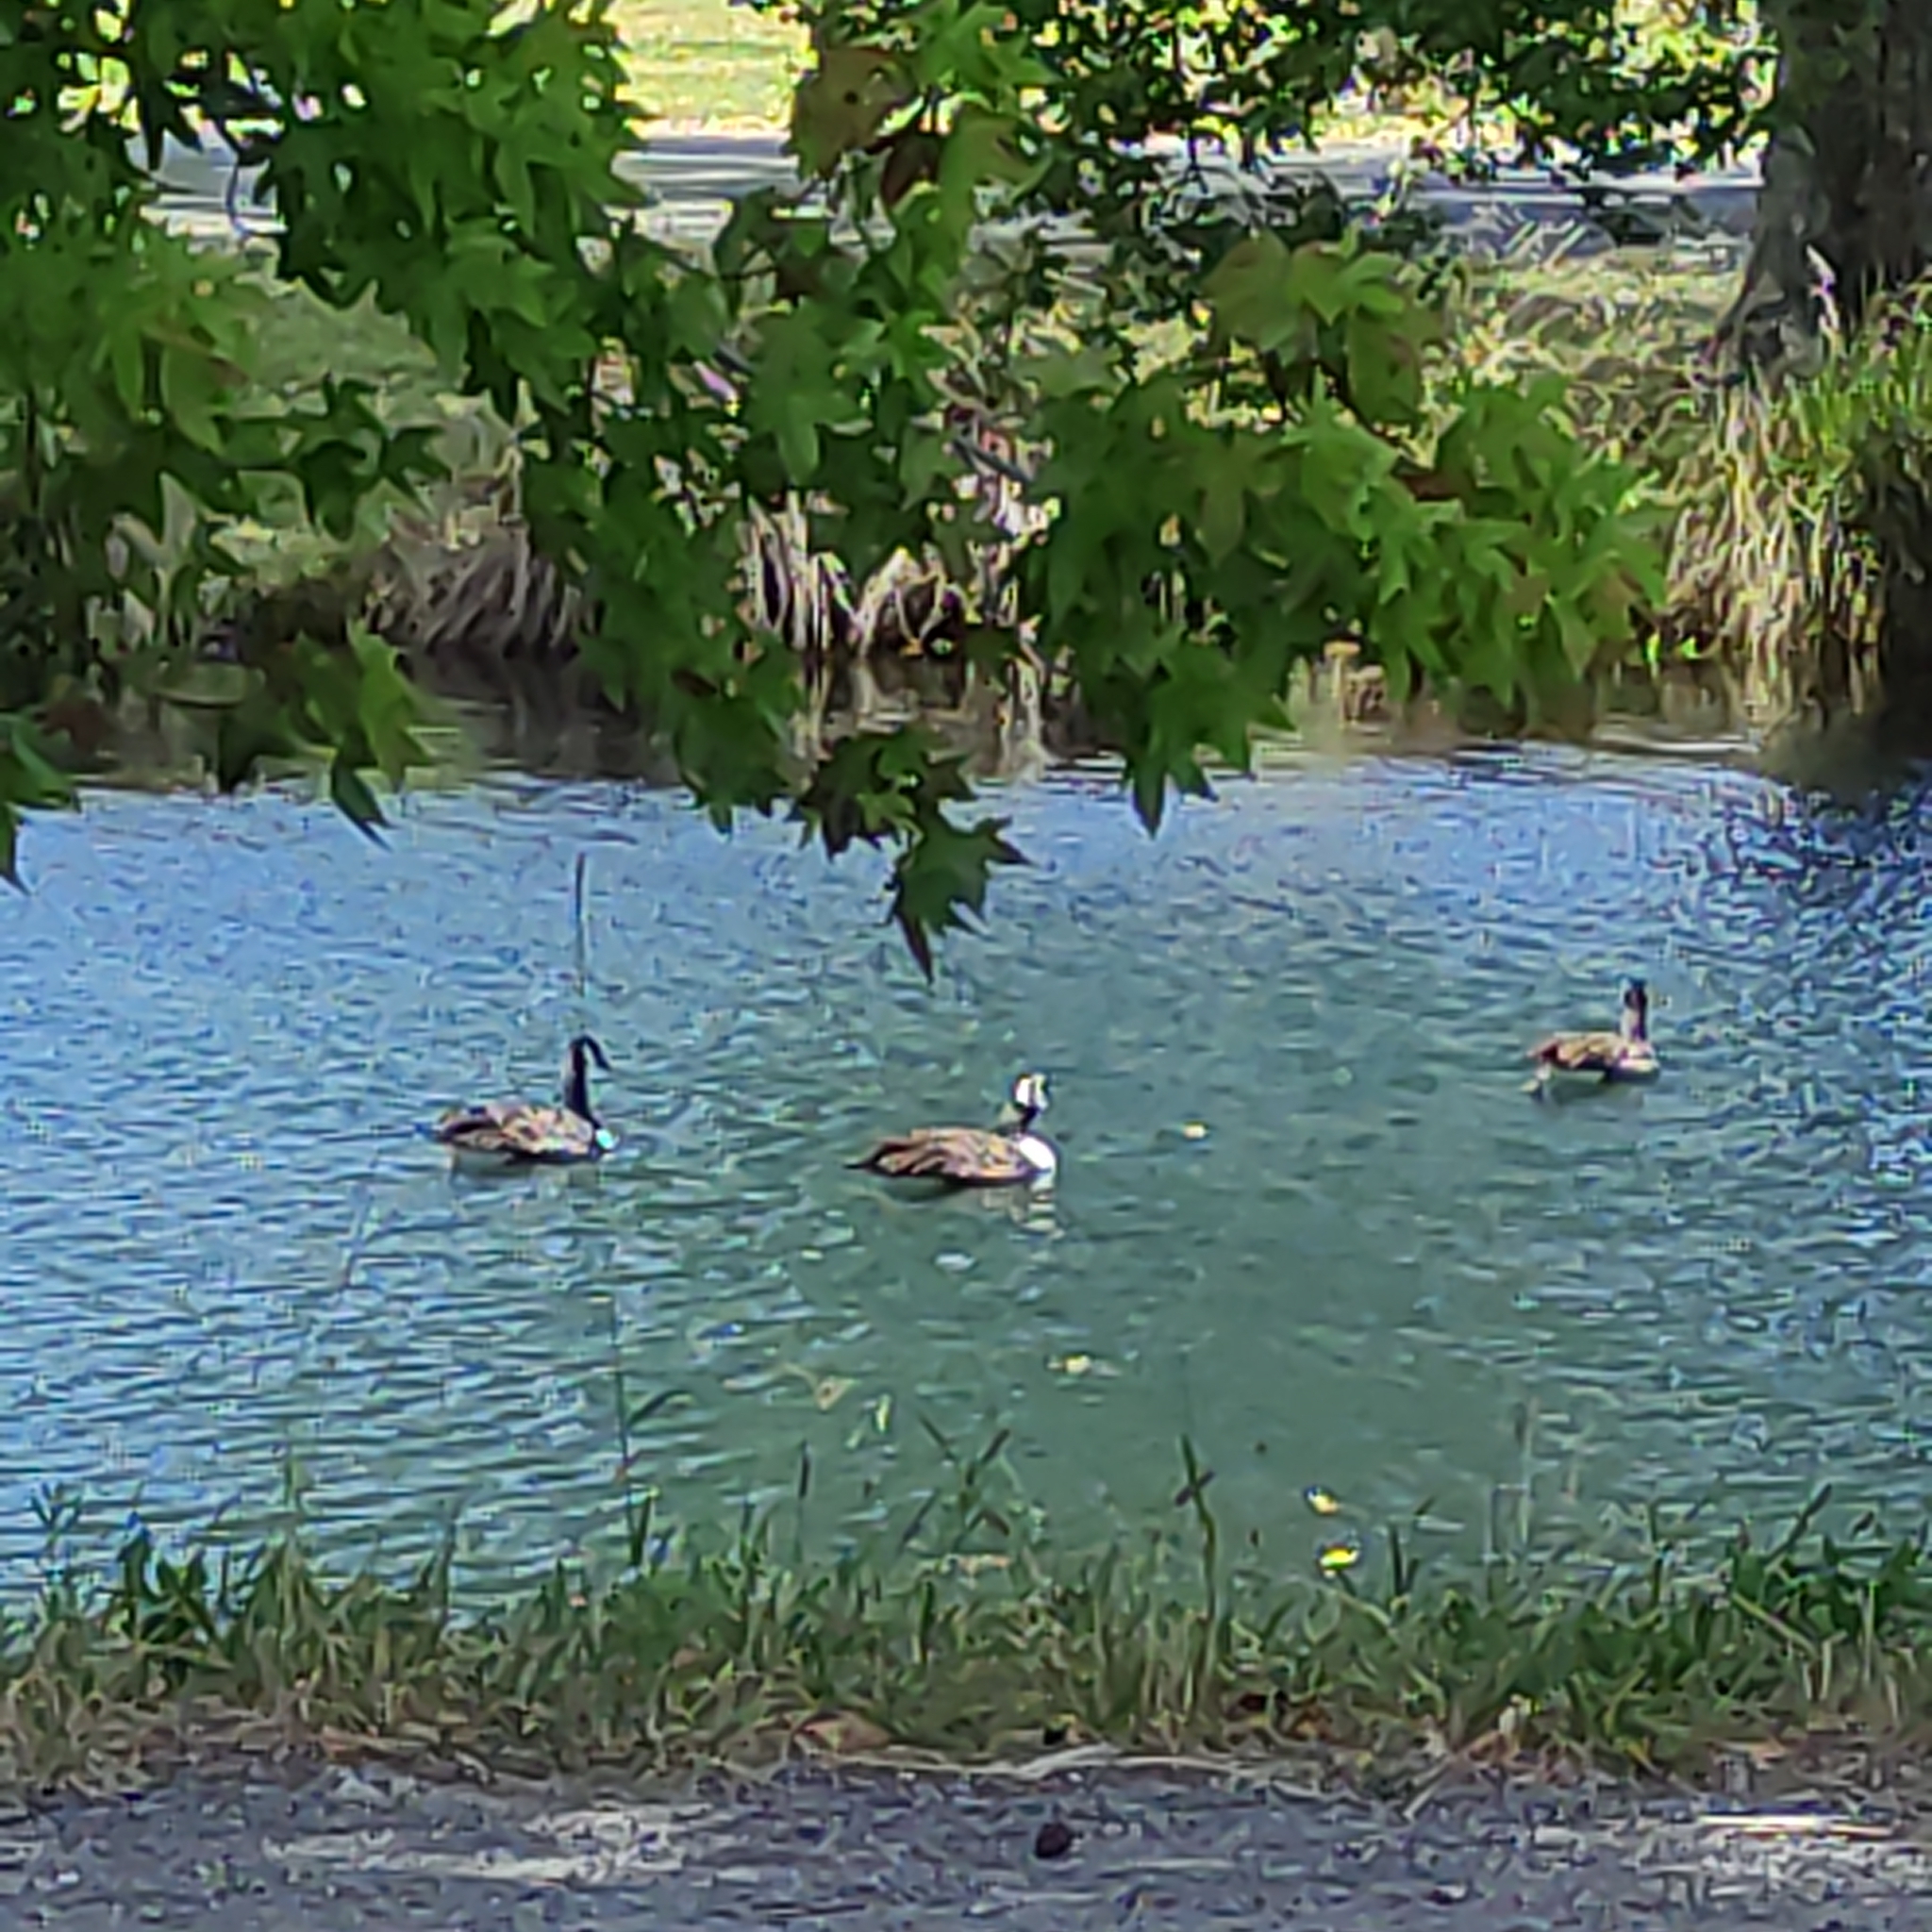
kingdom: Animalia
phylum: Chordata
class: Aves
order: Anseriformes
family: Anatidae
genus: Branta
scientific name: Branta canadensis
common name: Canada goose
